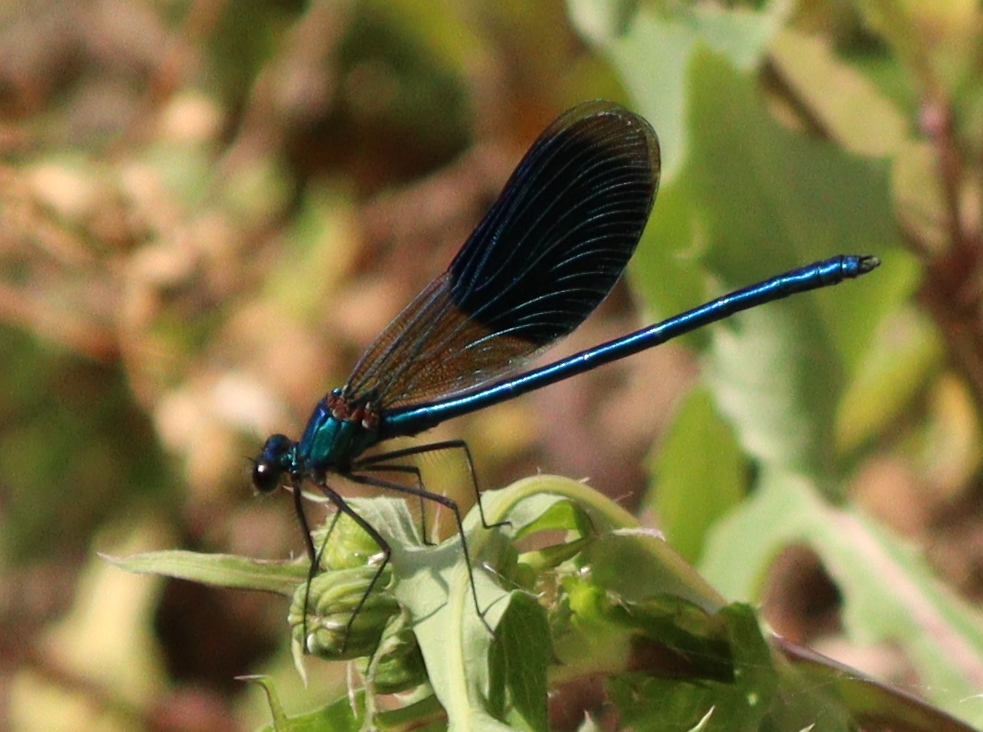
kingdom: Animalia
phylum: Arthropoda
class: Insecta
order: Odonata
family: Calopterygidae
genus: Calopteryx
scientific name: Calopteryx splendens
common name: Banded demoiselle
